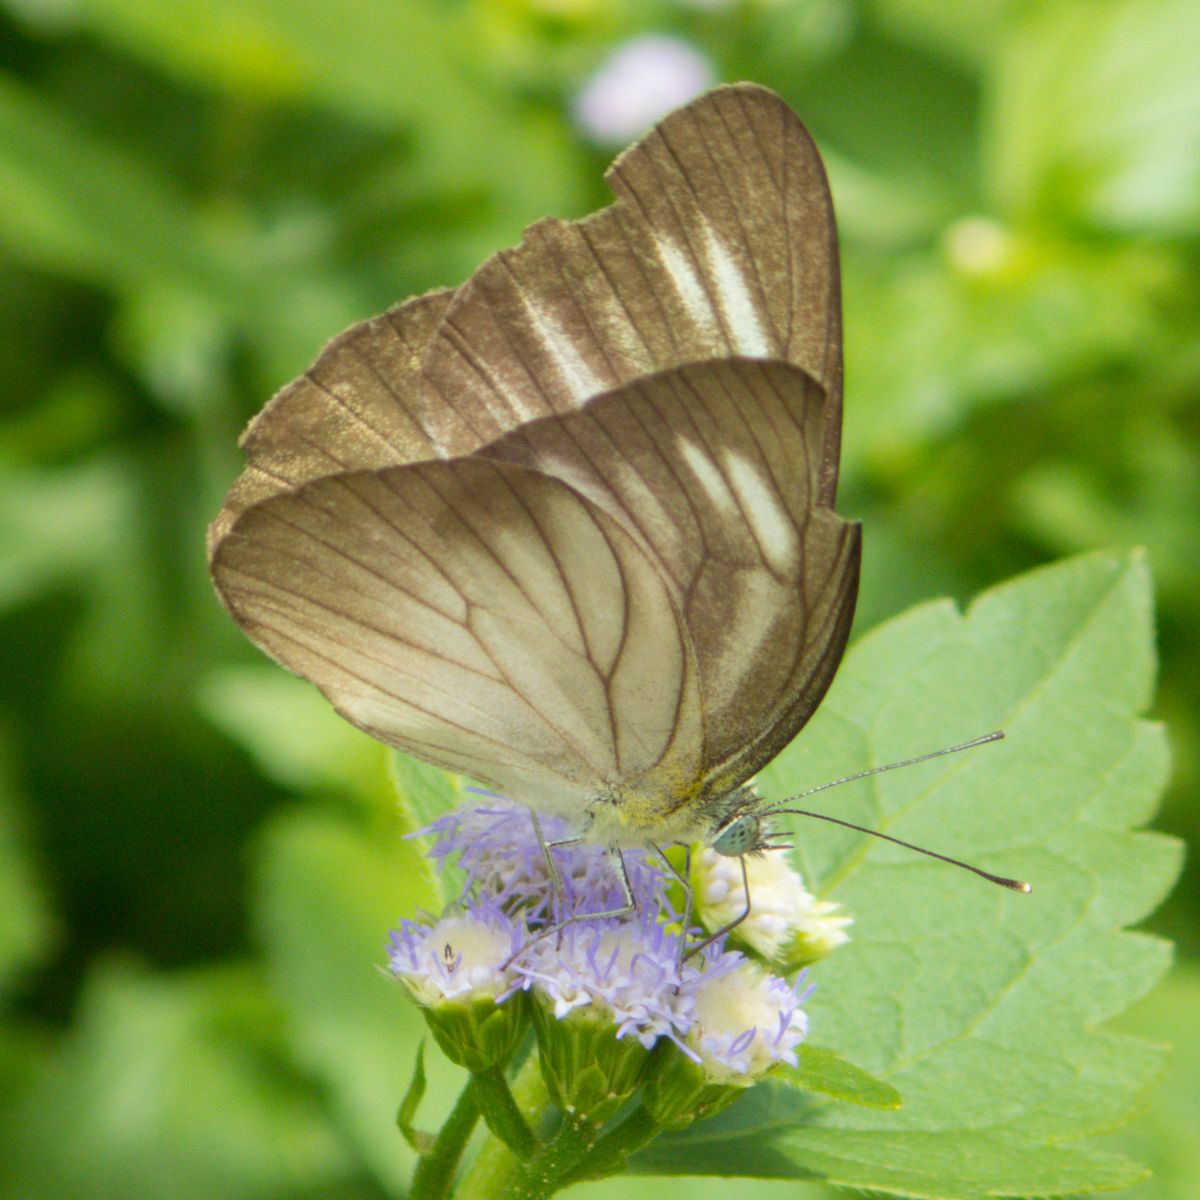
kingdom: Animalia
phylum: Arthropoda
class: Insecta
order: Lepidoptera
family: Pieridae
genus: Appias
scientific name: Appias lyncida
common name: Chocolate albatross
